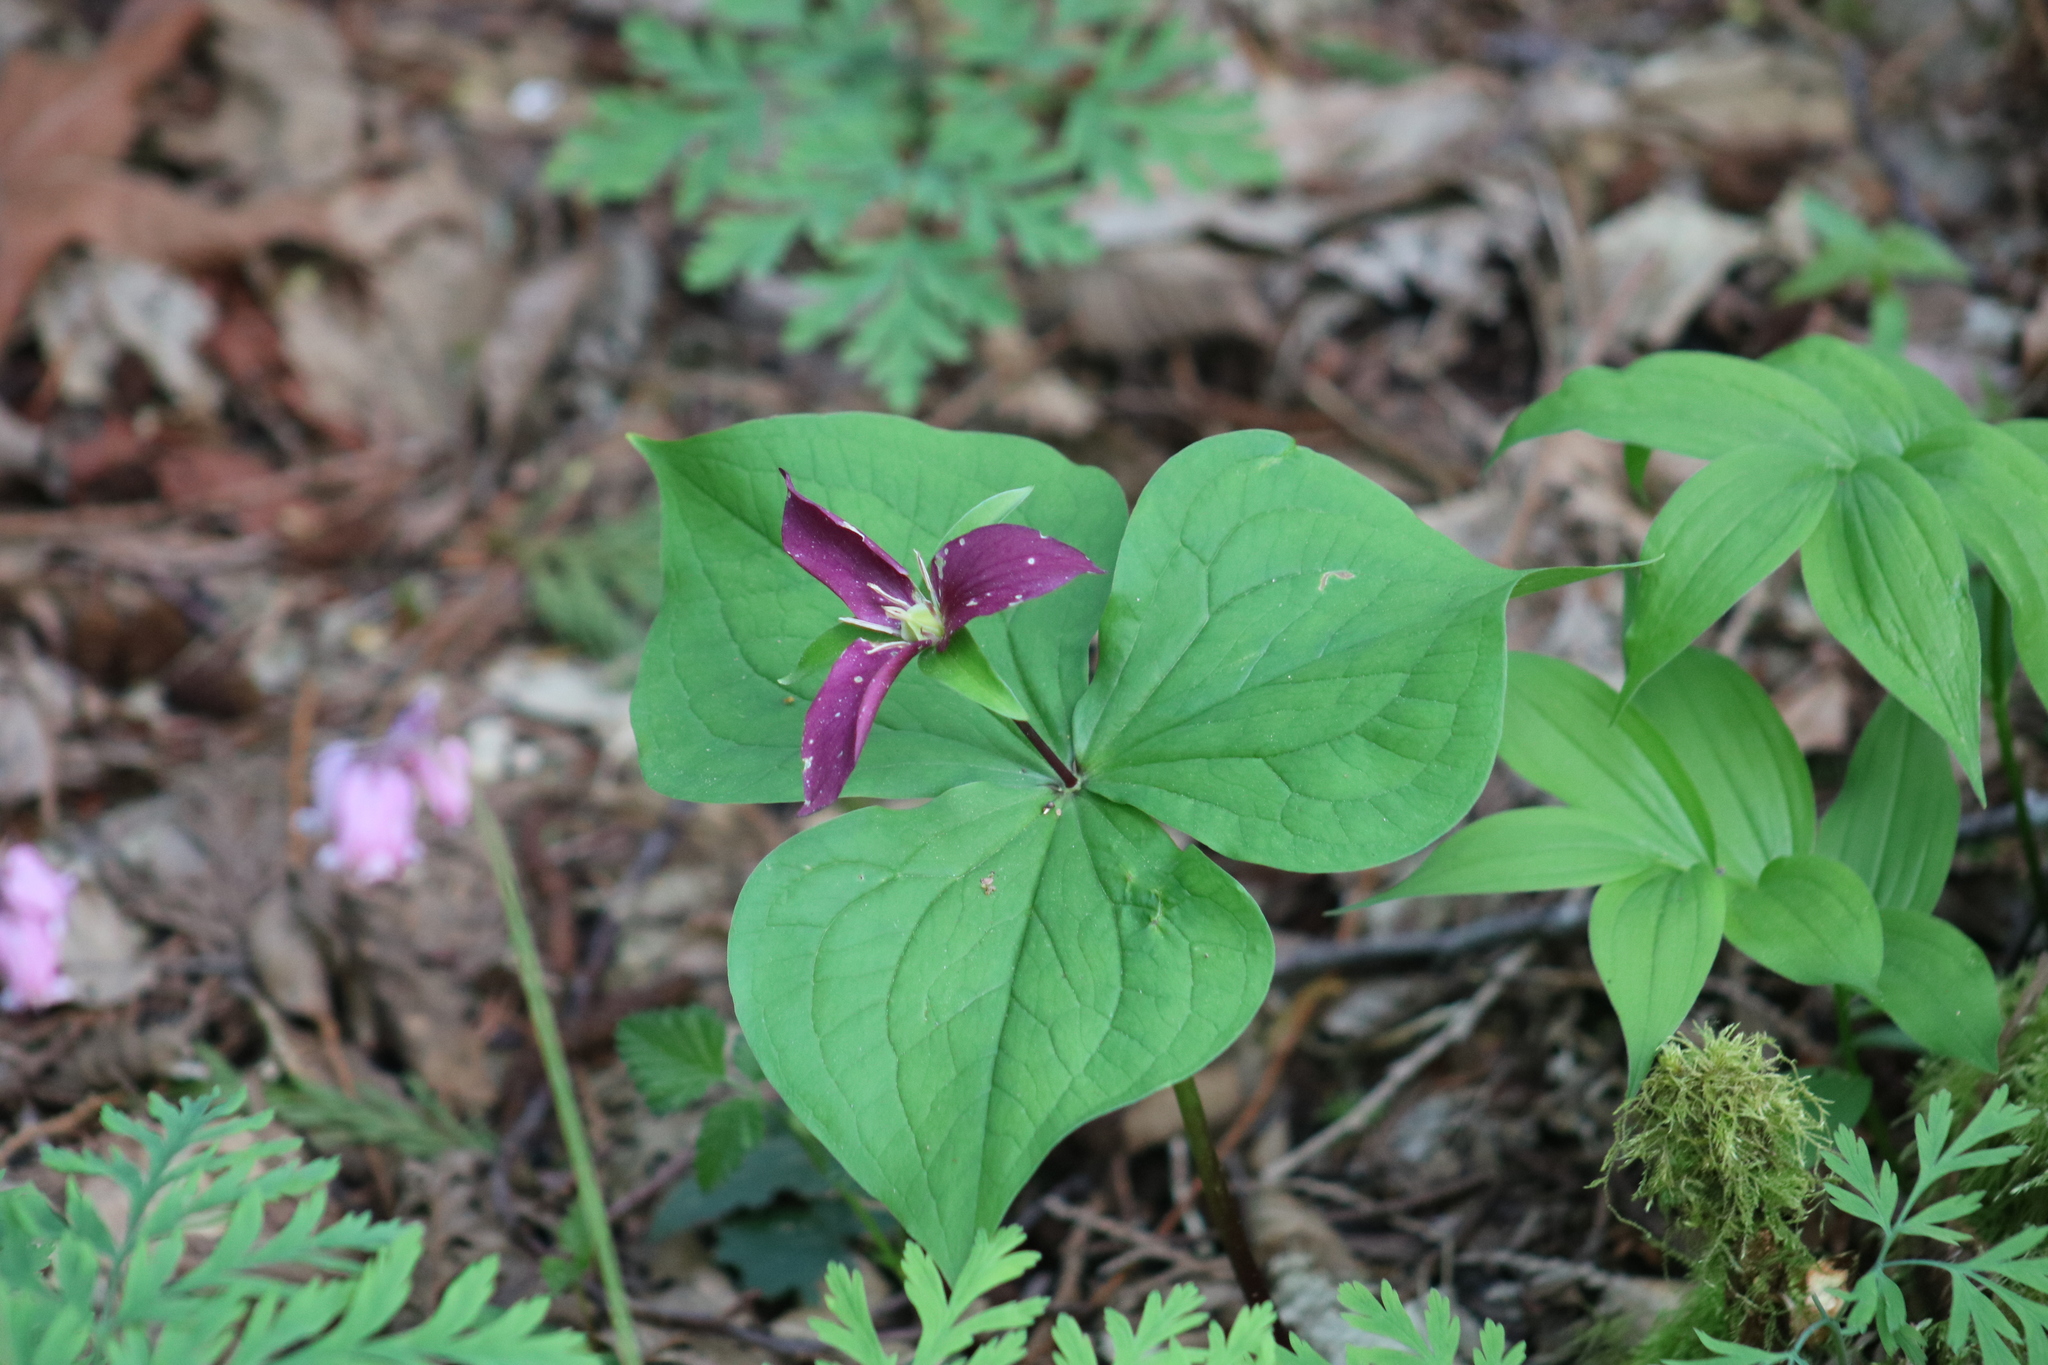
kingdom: Plantae
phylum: Tracheophyta
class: Liliopsida
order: Liliales
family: Melanthiaceae
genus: Trillium
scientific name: Trillium ovatum
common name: Pacific trillium
